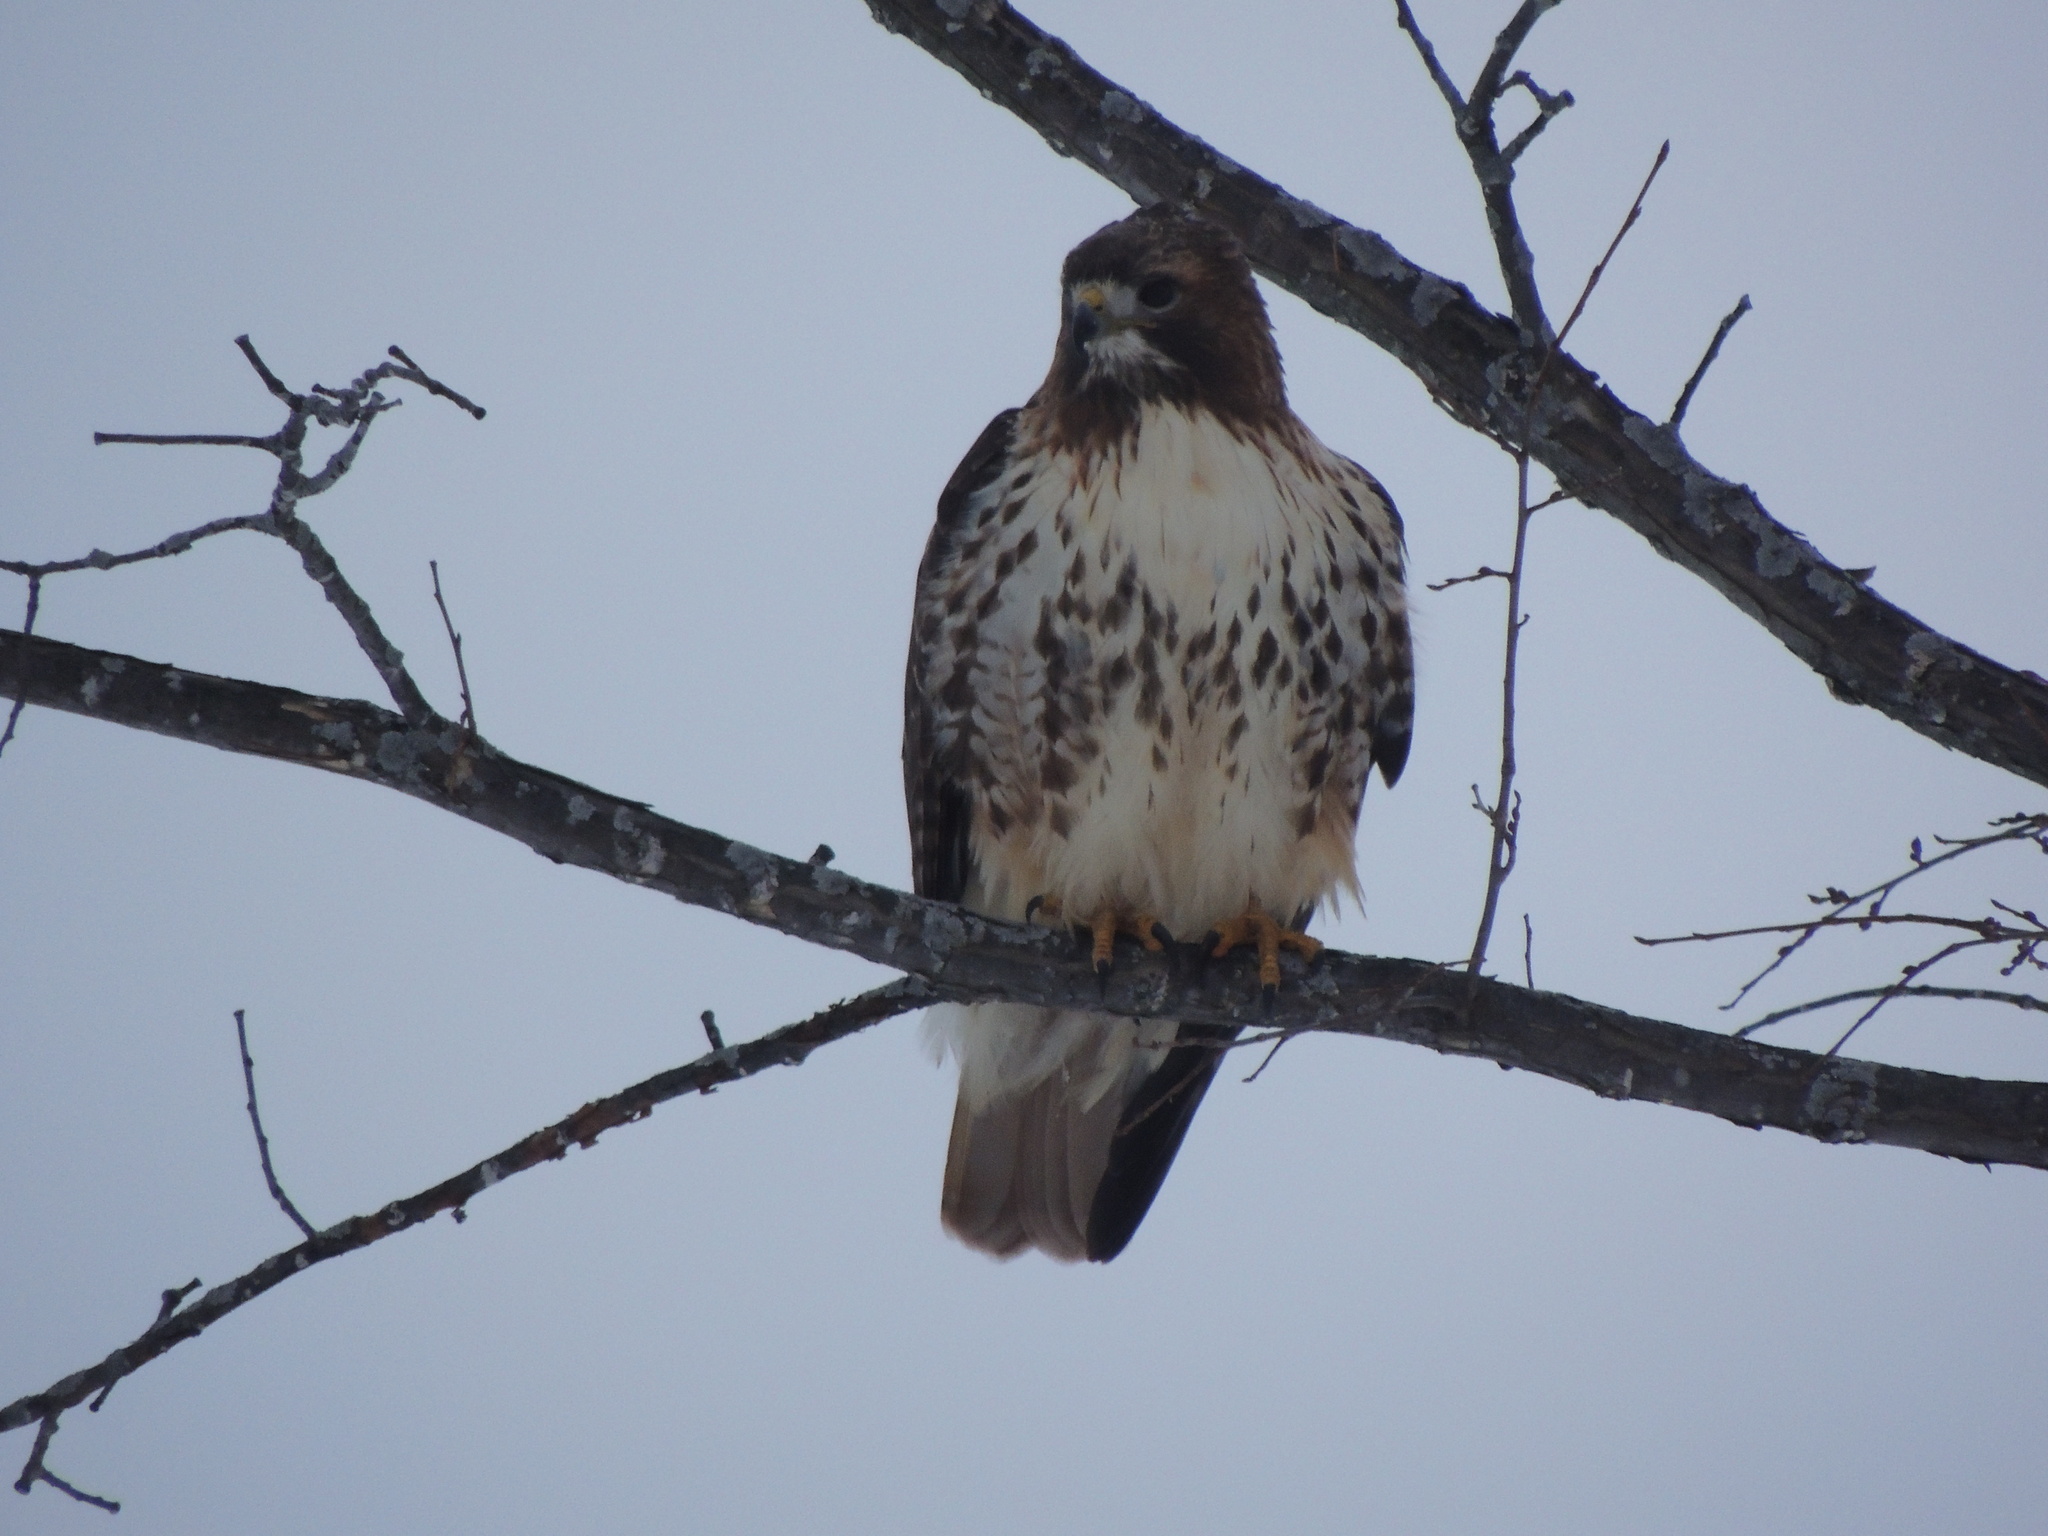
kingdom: Animalia
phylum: Chordata
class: Aves
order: Accipitriformes
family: Accipitridae
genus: Buteo
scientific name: Buteo jamaicensis
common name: Red-tailed hawk
